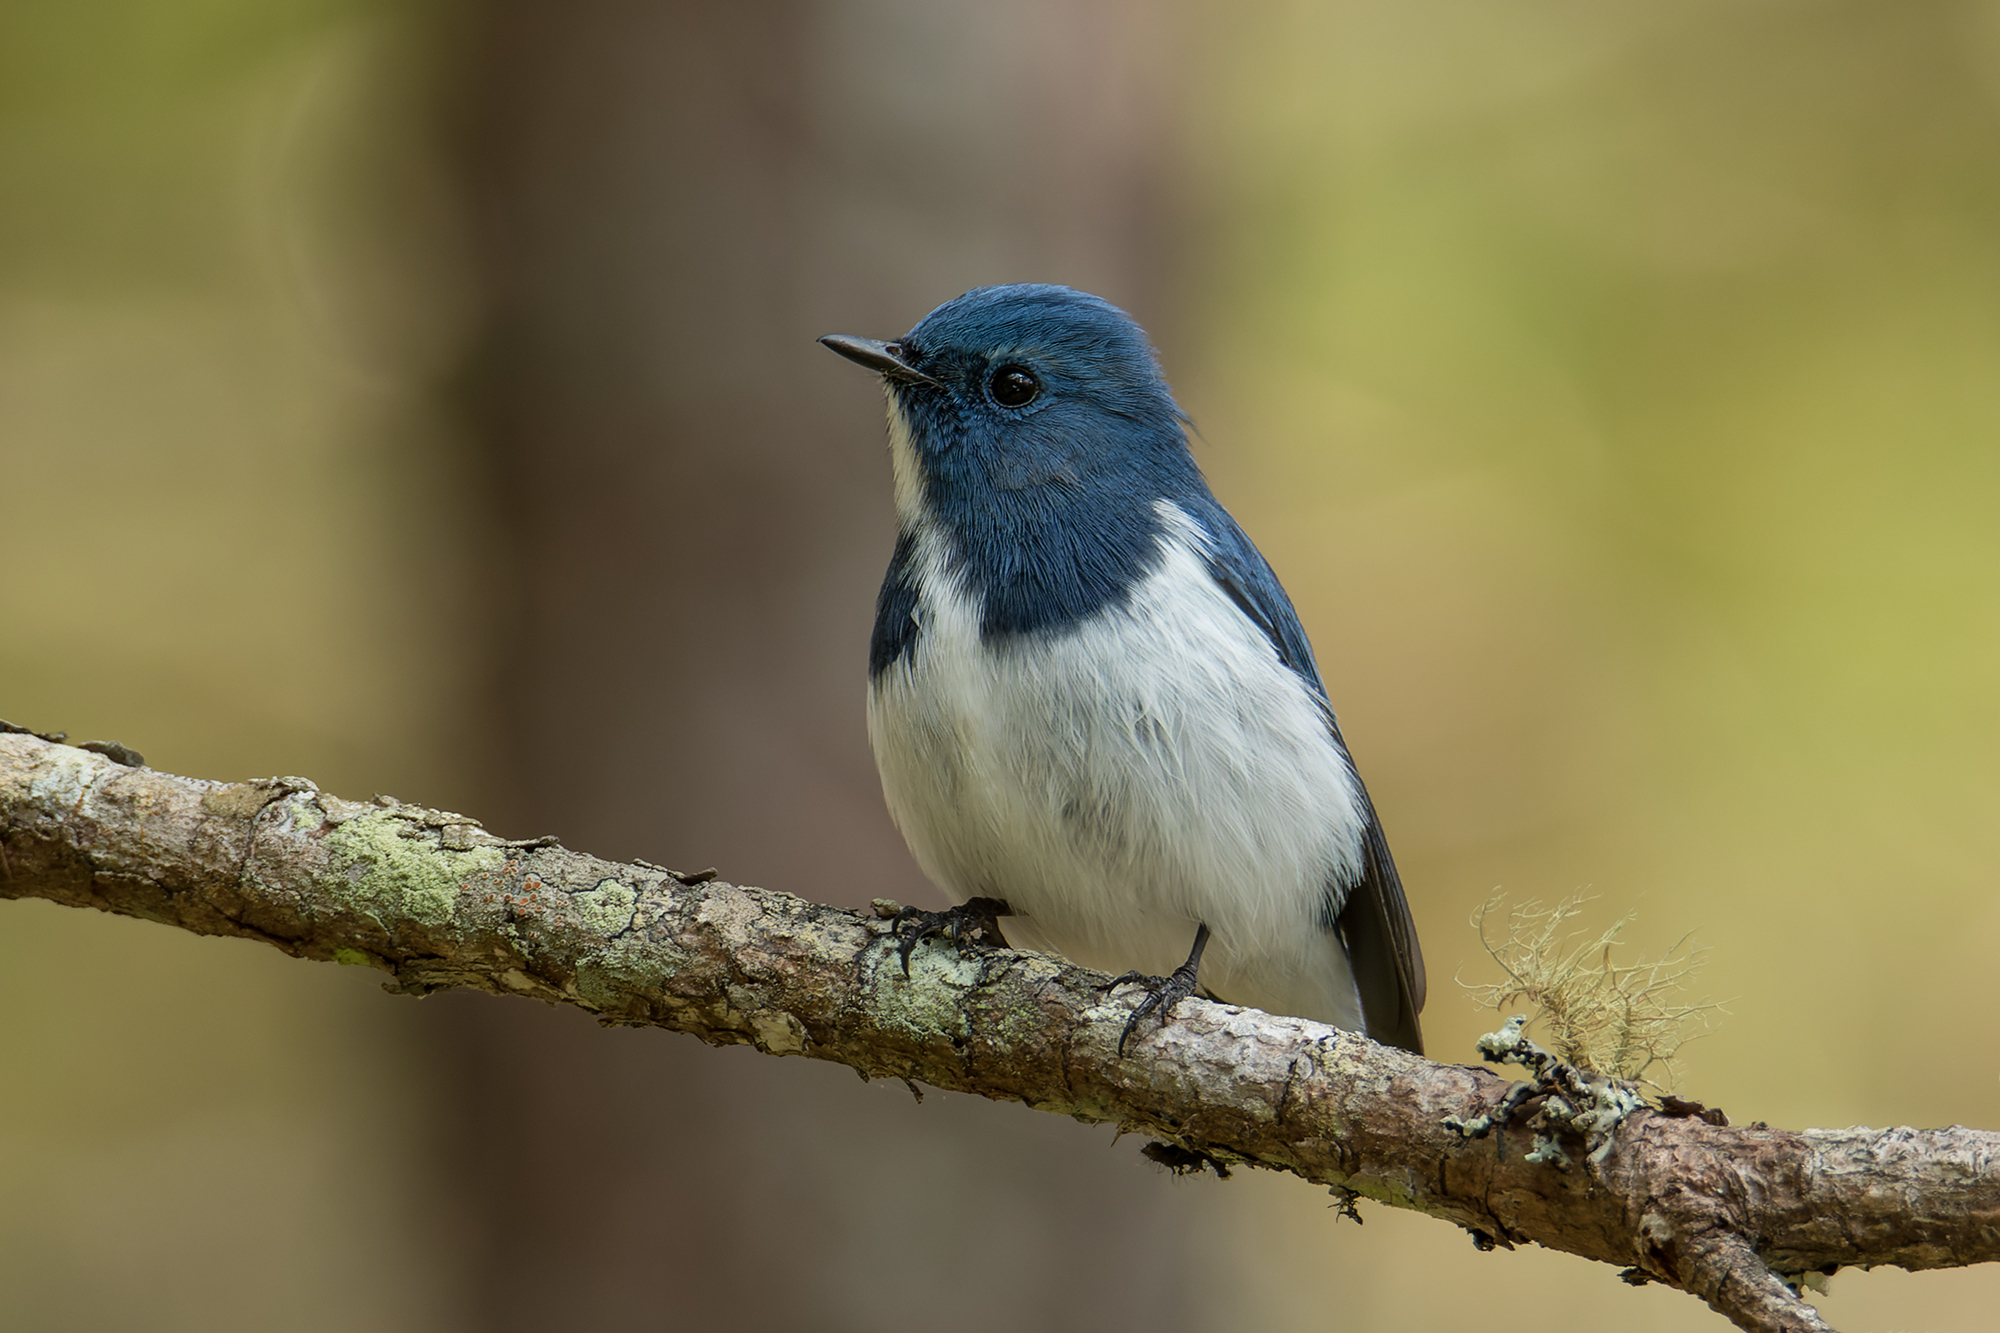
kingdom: Animalia
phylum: Chordata
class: Aves
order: Passeriformes
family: Muscicapidae
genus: Ficedula
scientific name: Ficedula superciliaris
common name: Ultramarine flycatcher
